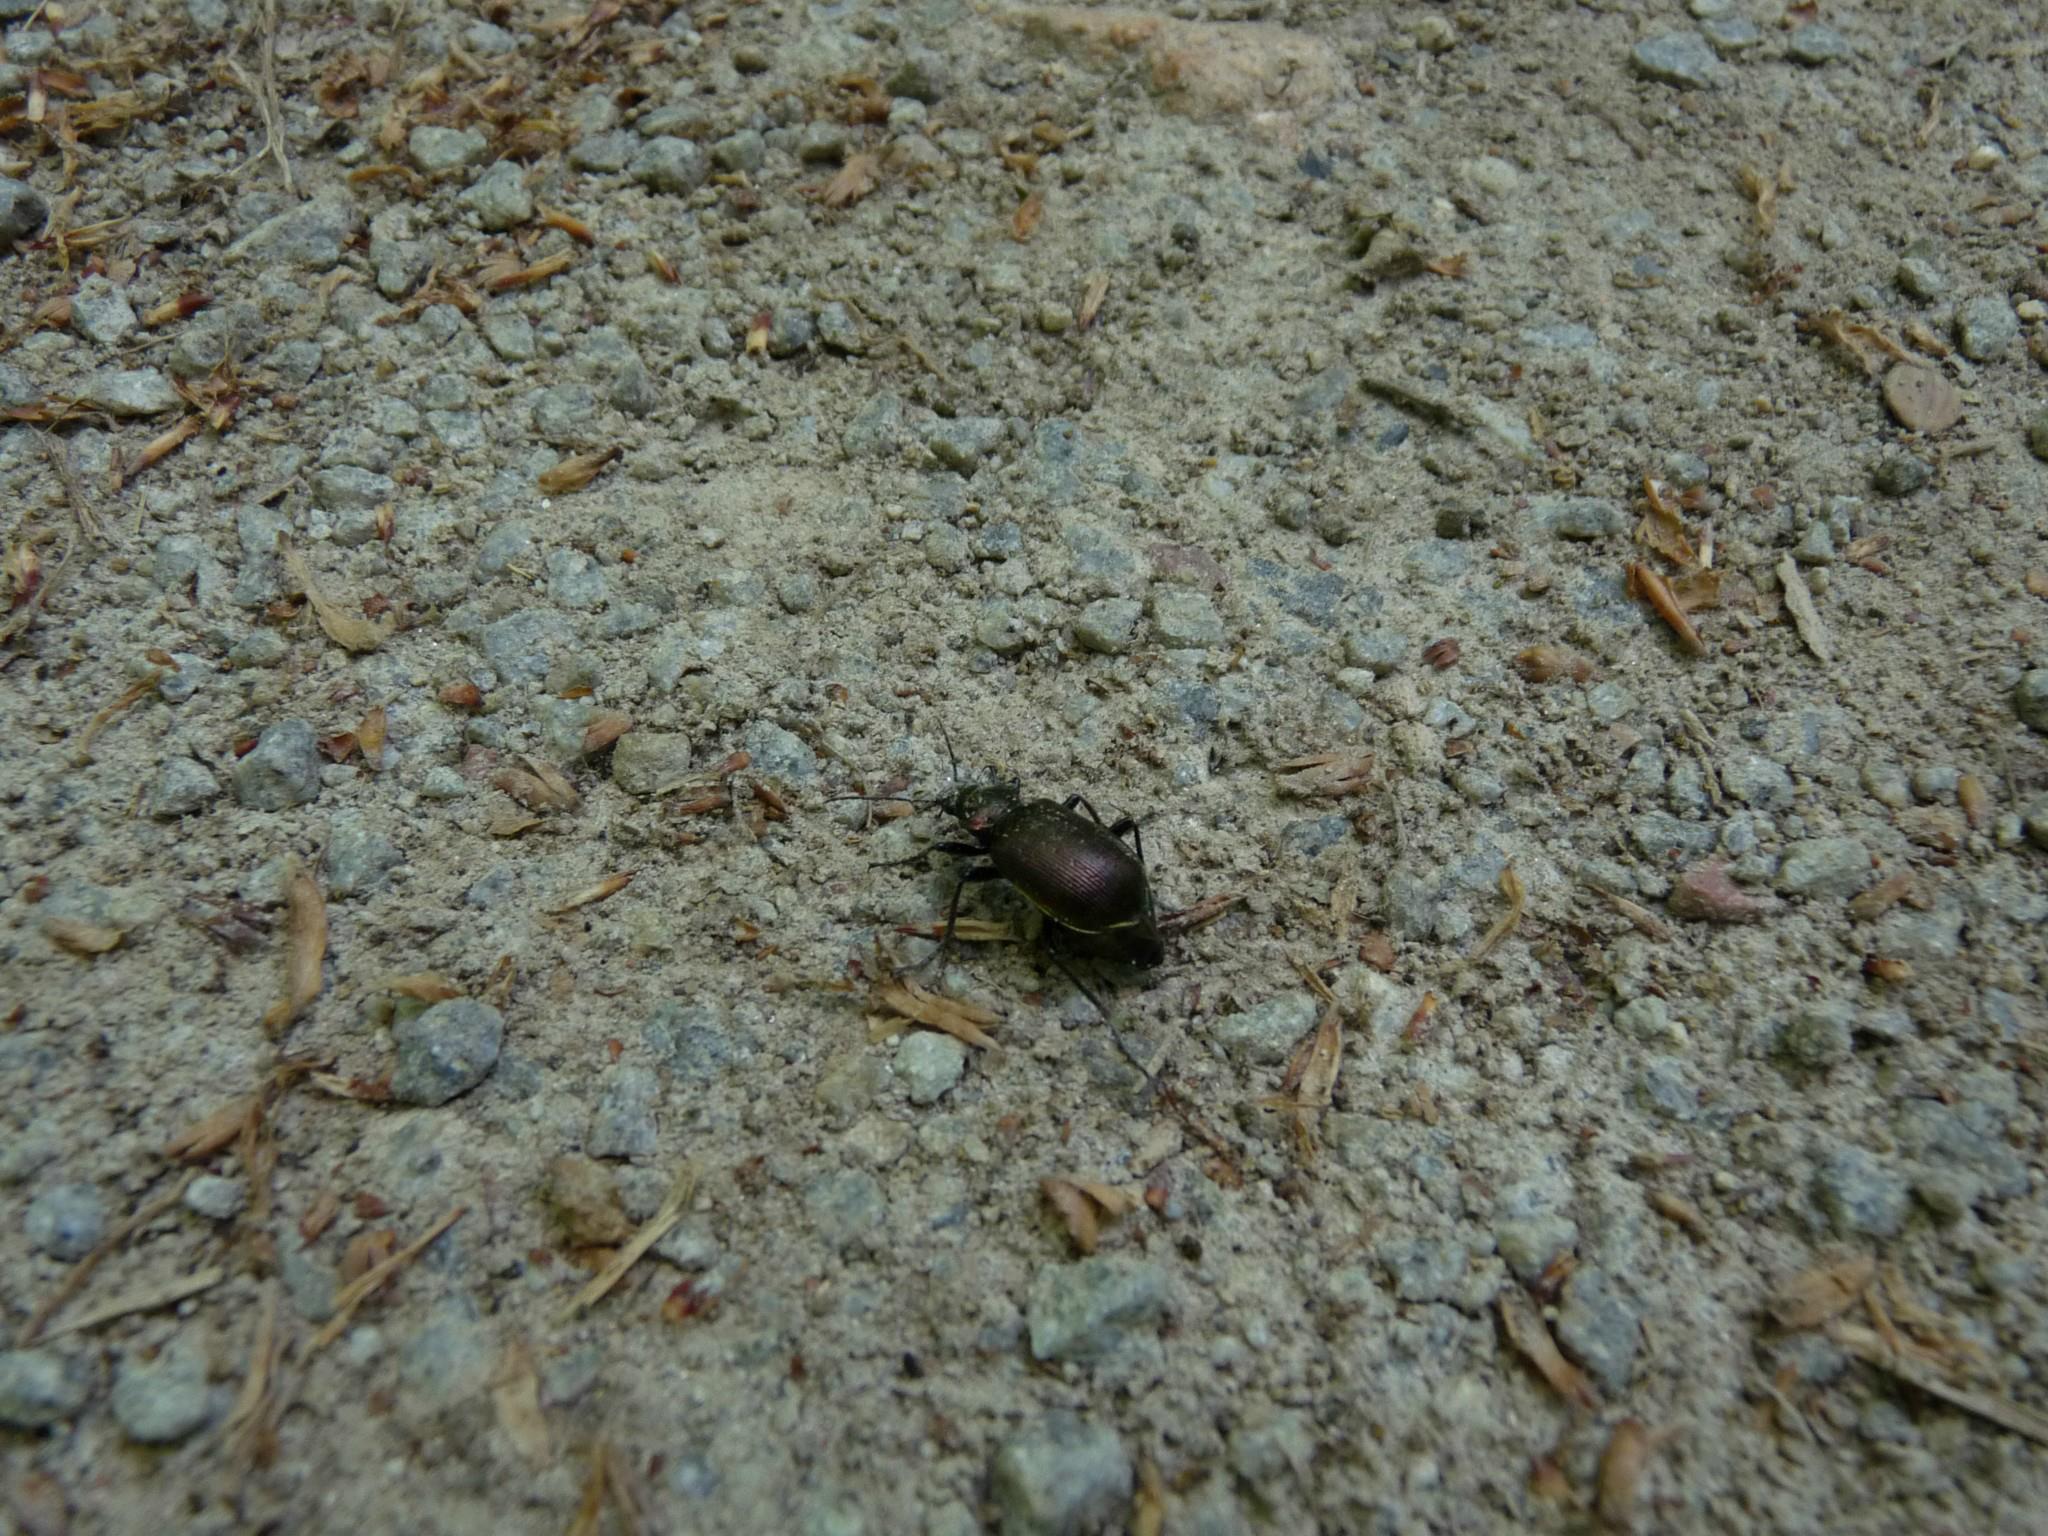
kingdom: Animalia
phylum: Arthropoda
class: Insecta
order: Coleoptera
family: Carabidae
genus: Calosoma
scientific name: Calosoma inquisitor
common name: Caterpillar-hunter
